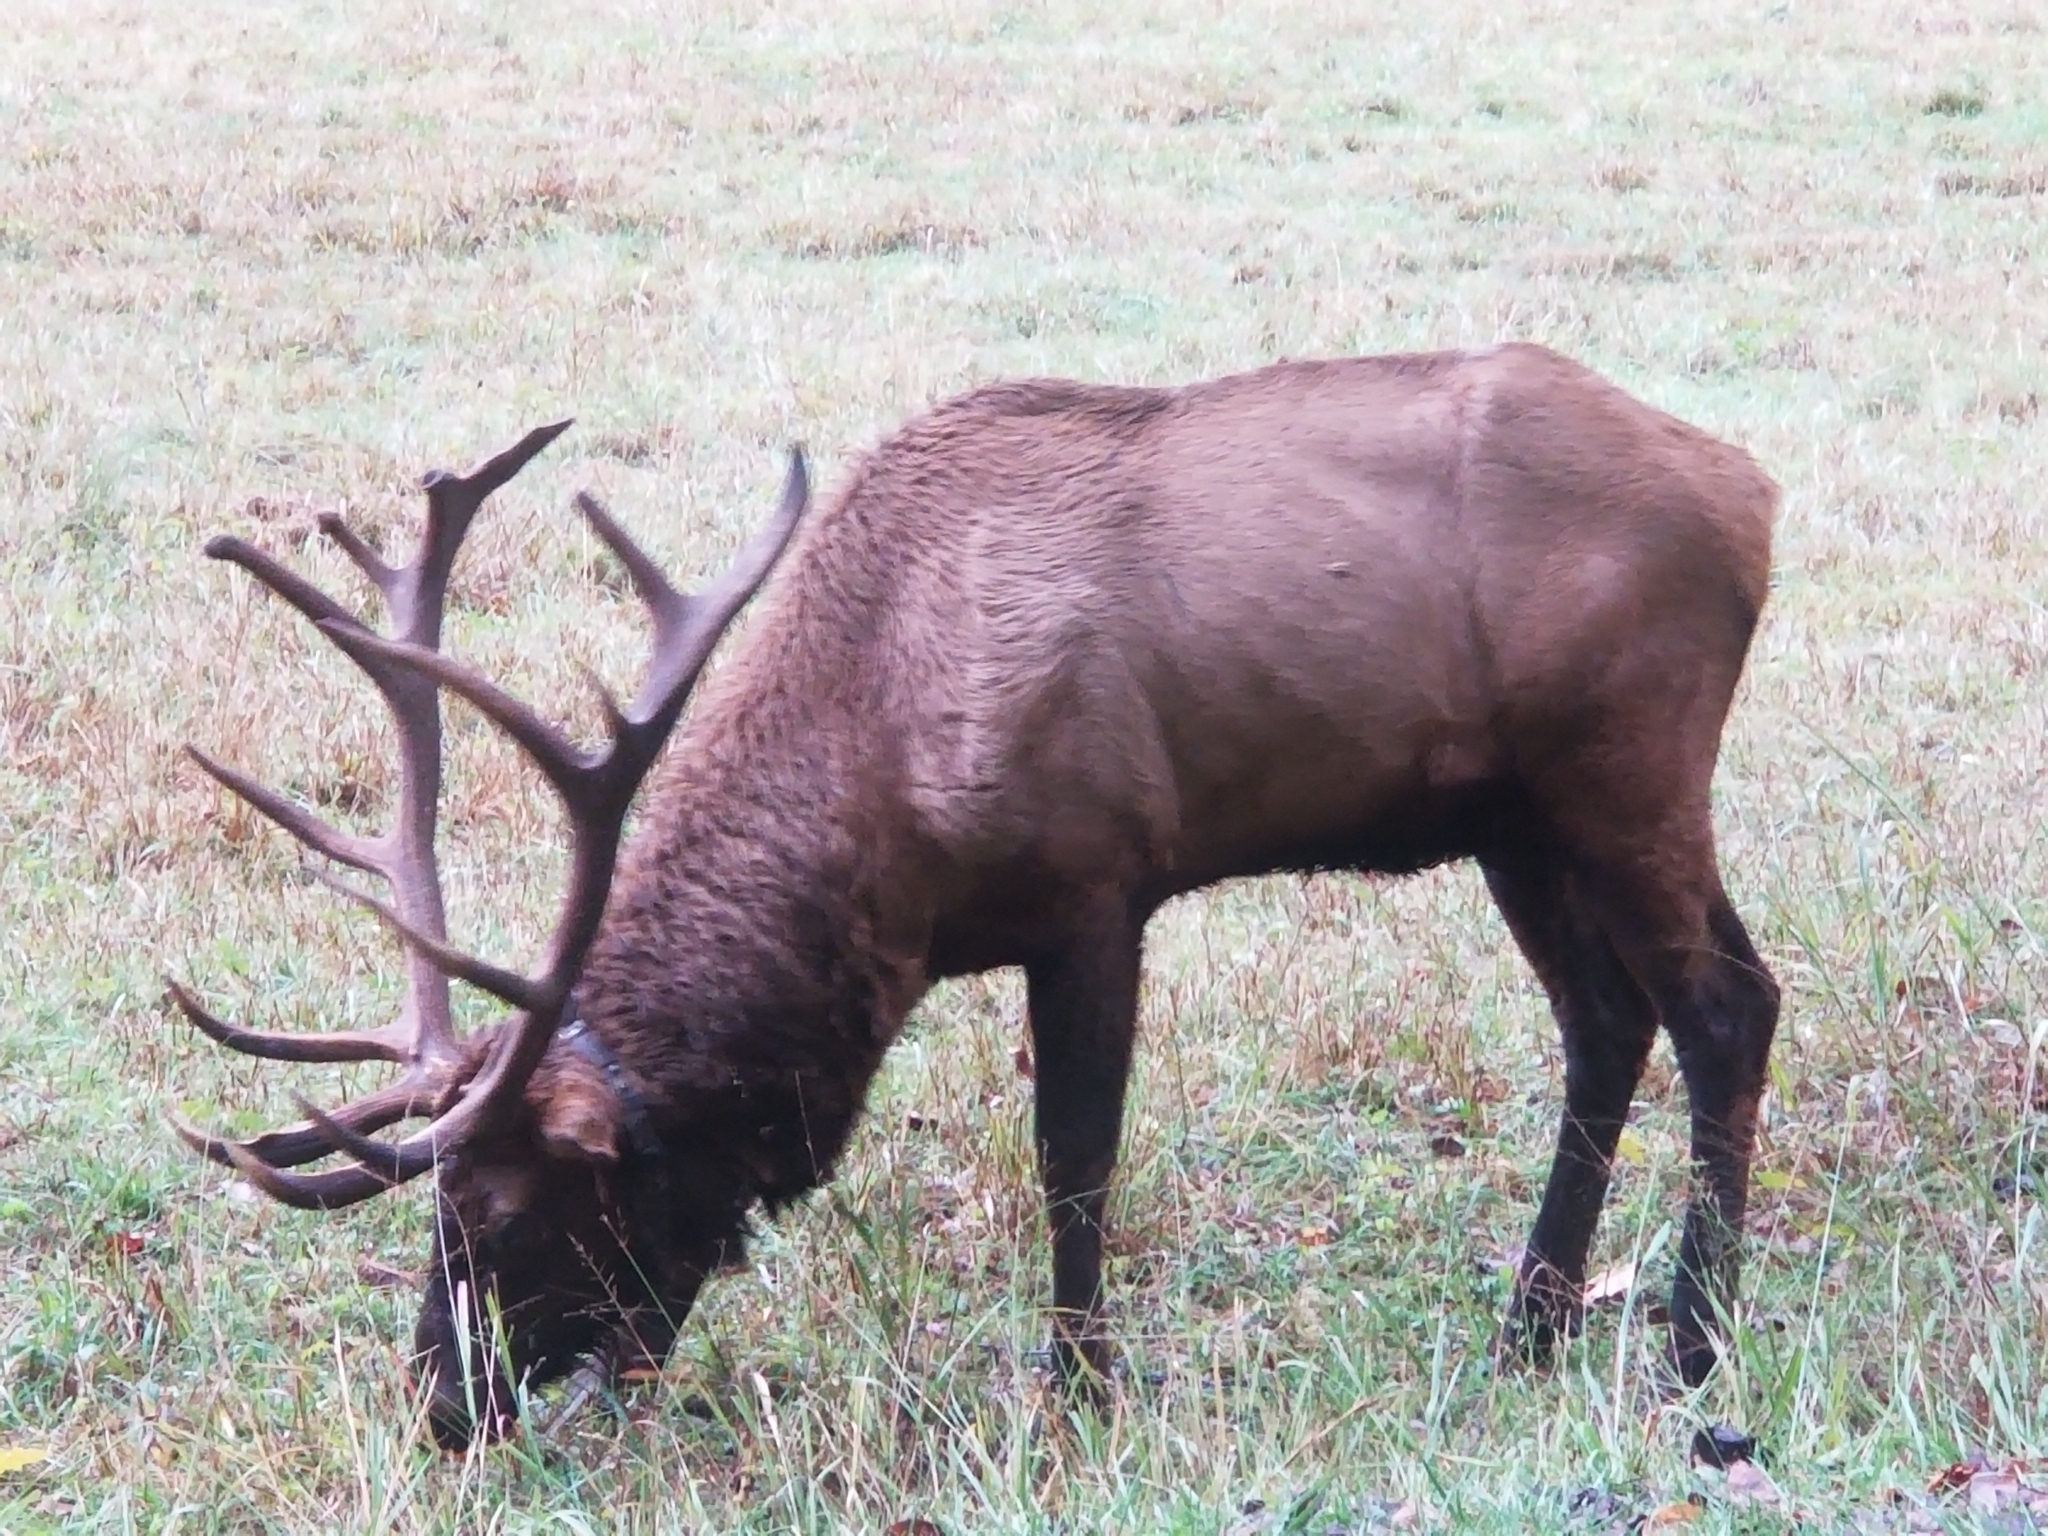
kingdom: Animalia
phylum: Chordata
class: Mammalia
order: Artiodactyla
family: Cervidae
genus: Cervus
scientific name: Cervus elaphus
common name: Red deer
